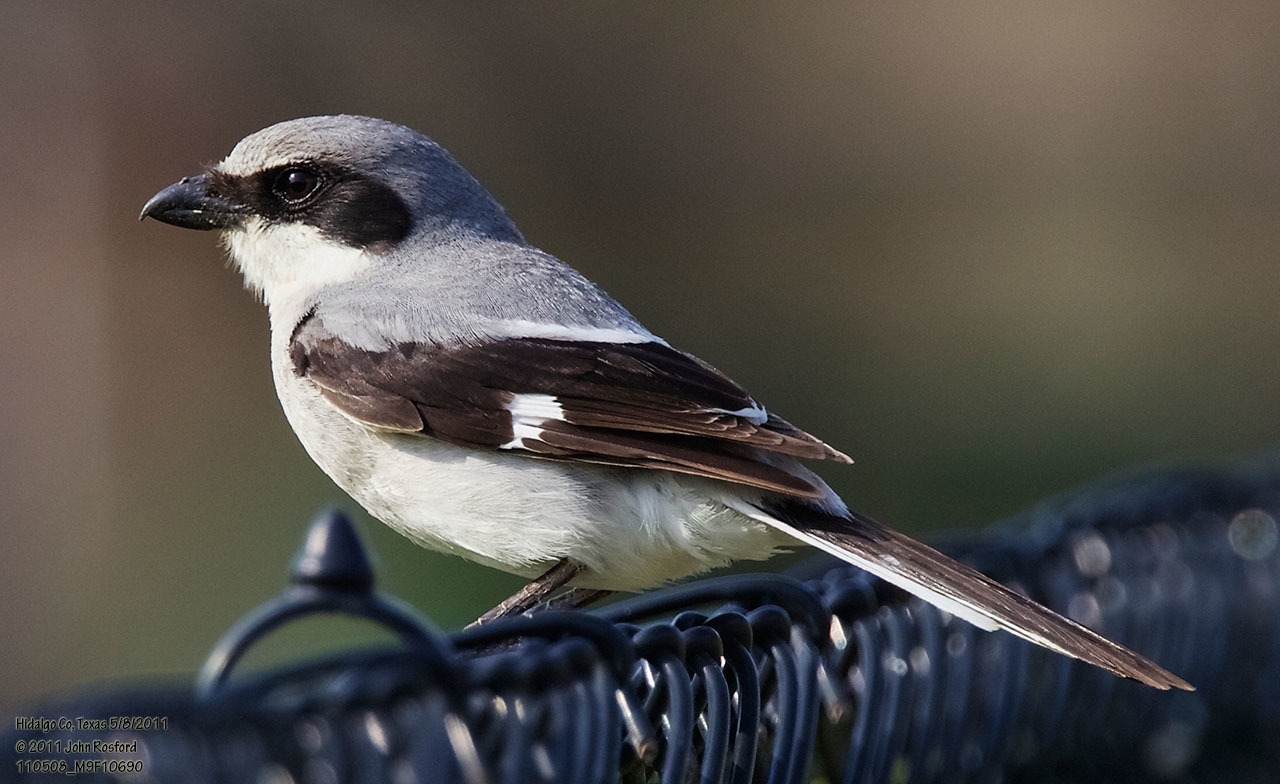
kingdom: Animalia
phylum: Chordata
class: Aves
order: Passeriformes
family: Laniidae
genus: Lanius
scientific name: Lanius ludovicianus
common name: Loggerhead shrike
